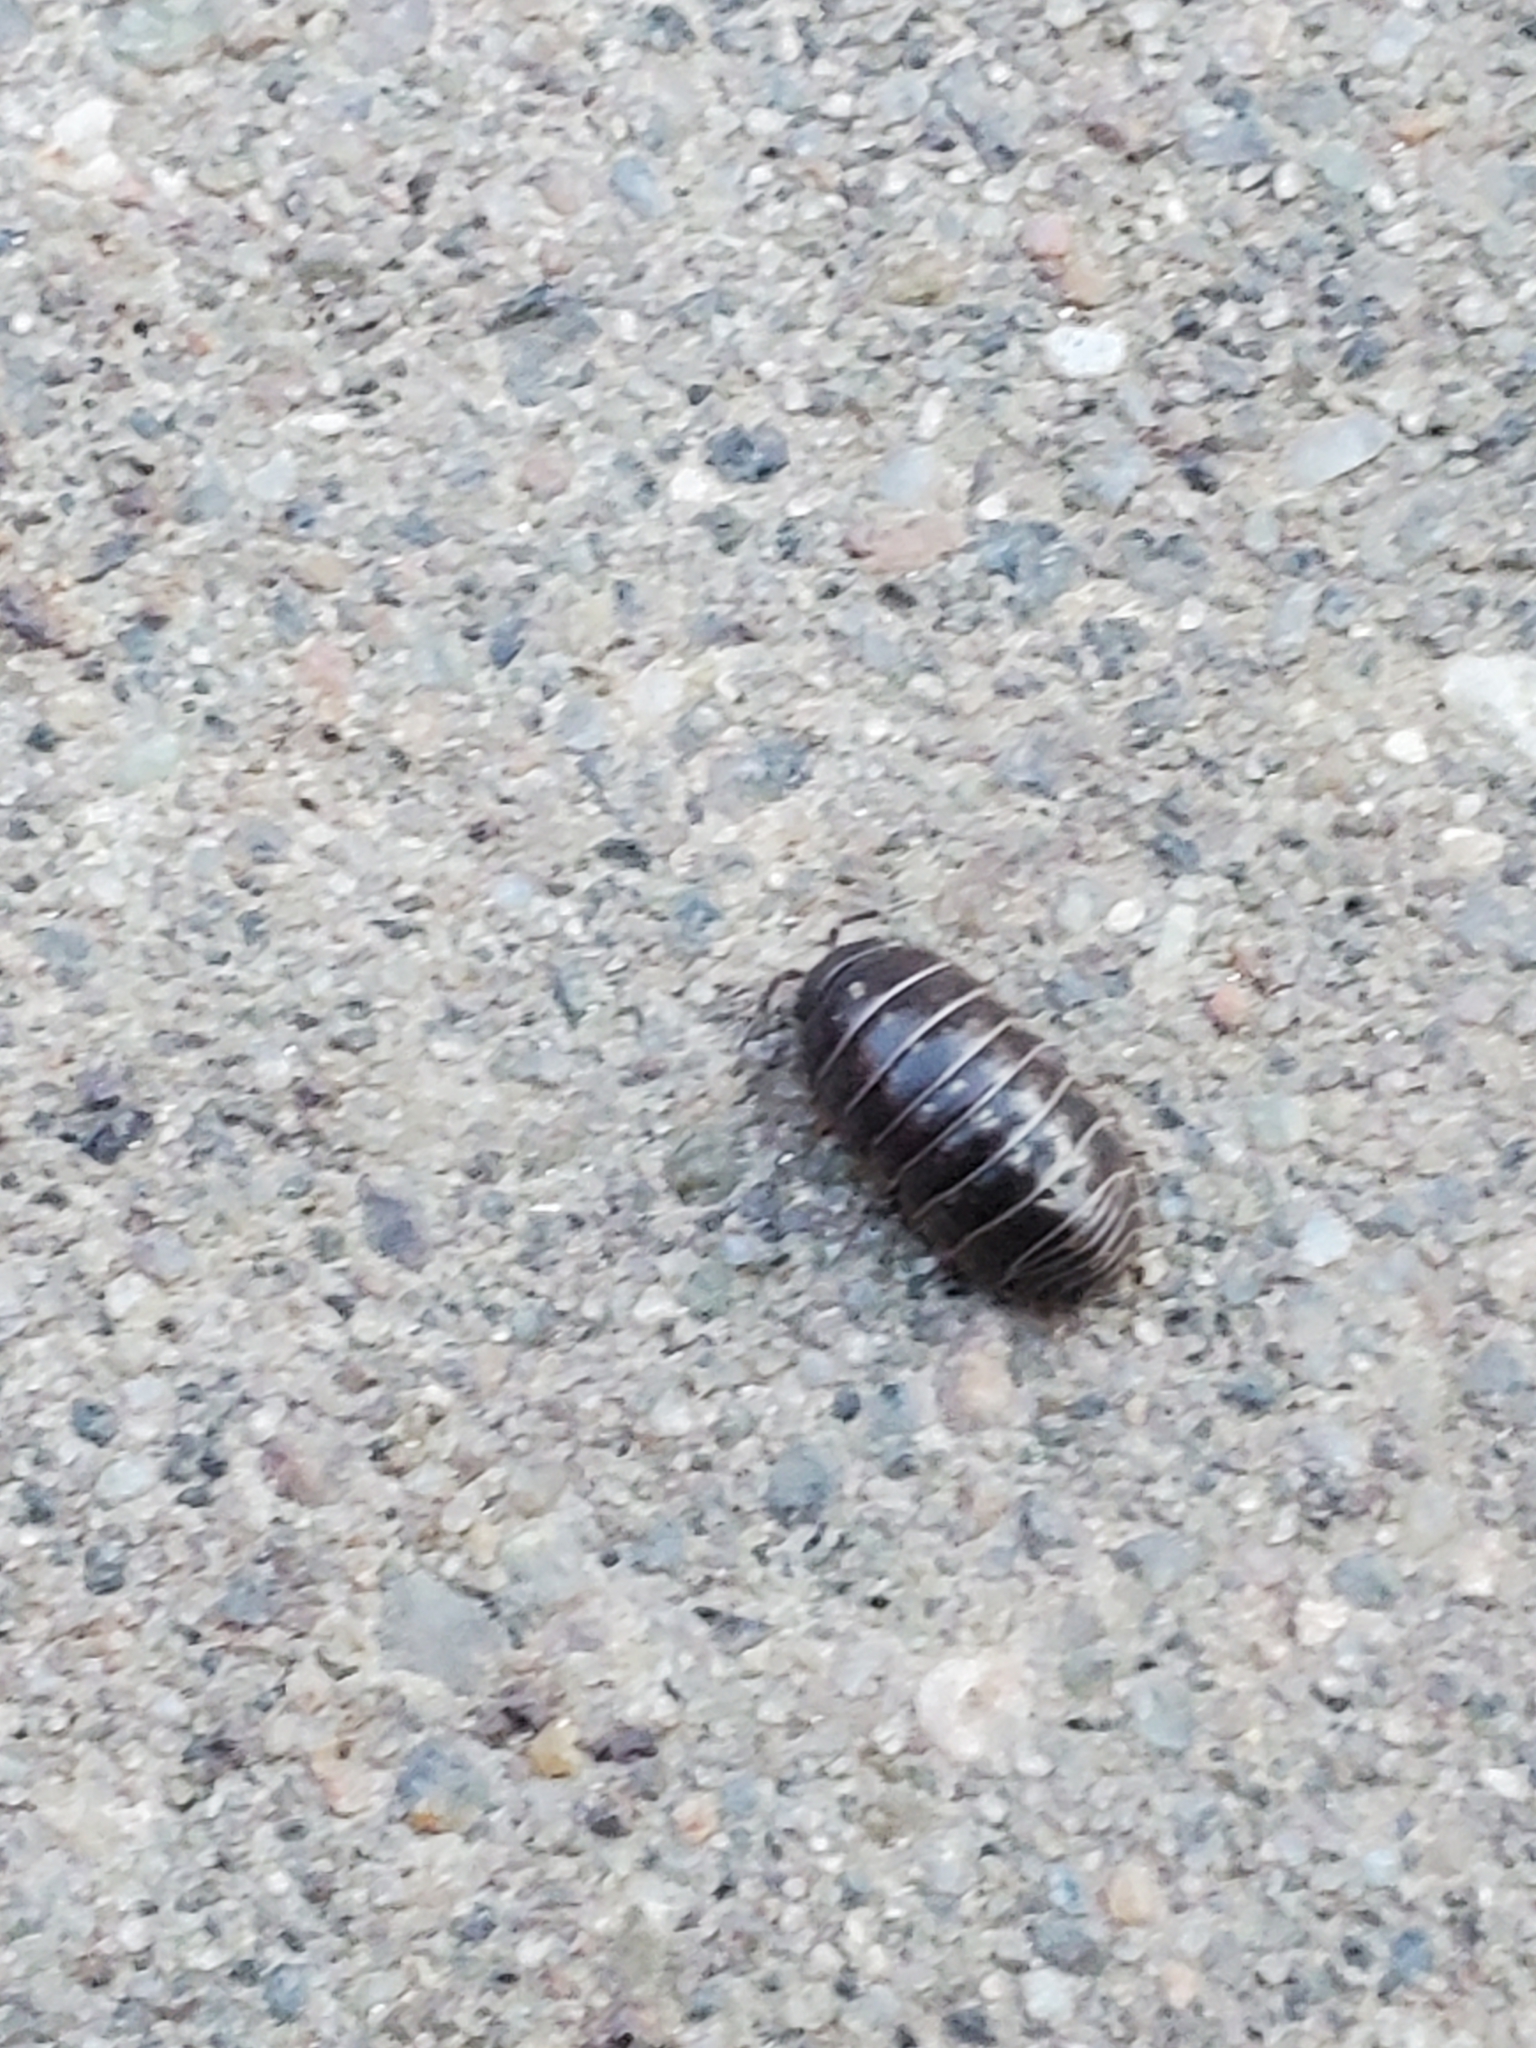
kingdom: Animalia
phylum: Arthropoda
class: Malacostraca
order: Isopoda
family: Armadillidiidae
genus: Armadillidium
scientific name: Armadillidium vulgare
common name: Common pill woodlouse
